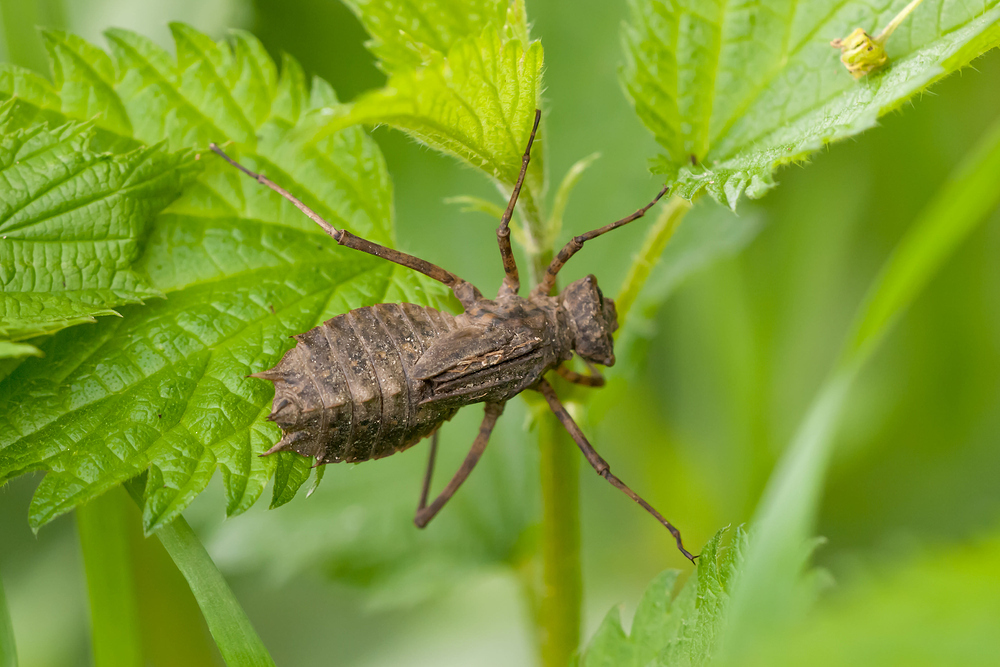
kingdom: Animalia
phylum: Arthropoda
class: Insecta
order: Odonata
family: Corduliidae
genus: Epitheca
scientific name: Epitheca bimaculata
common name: Eurasian baskettail
